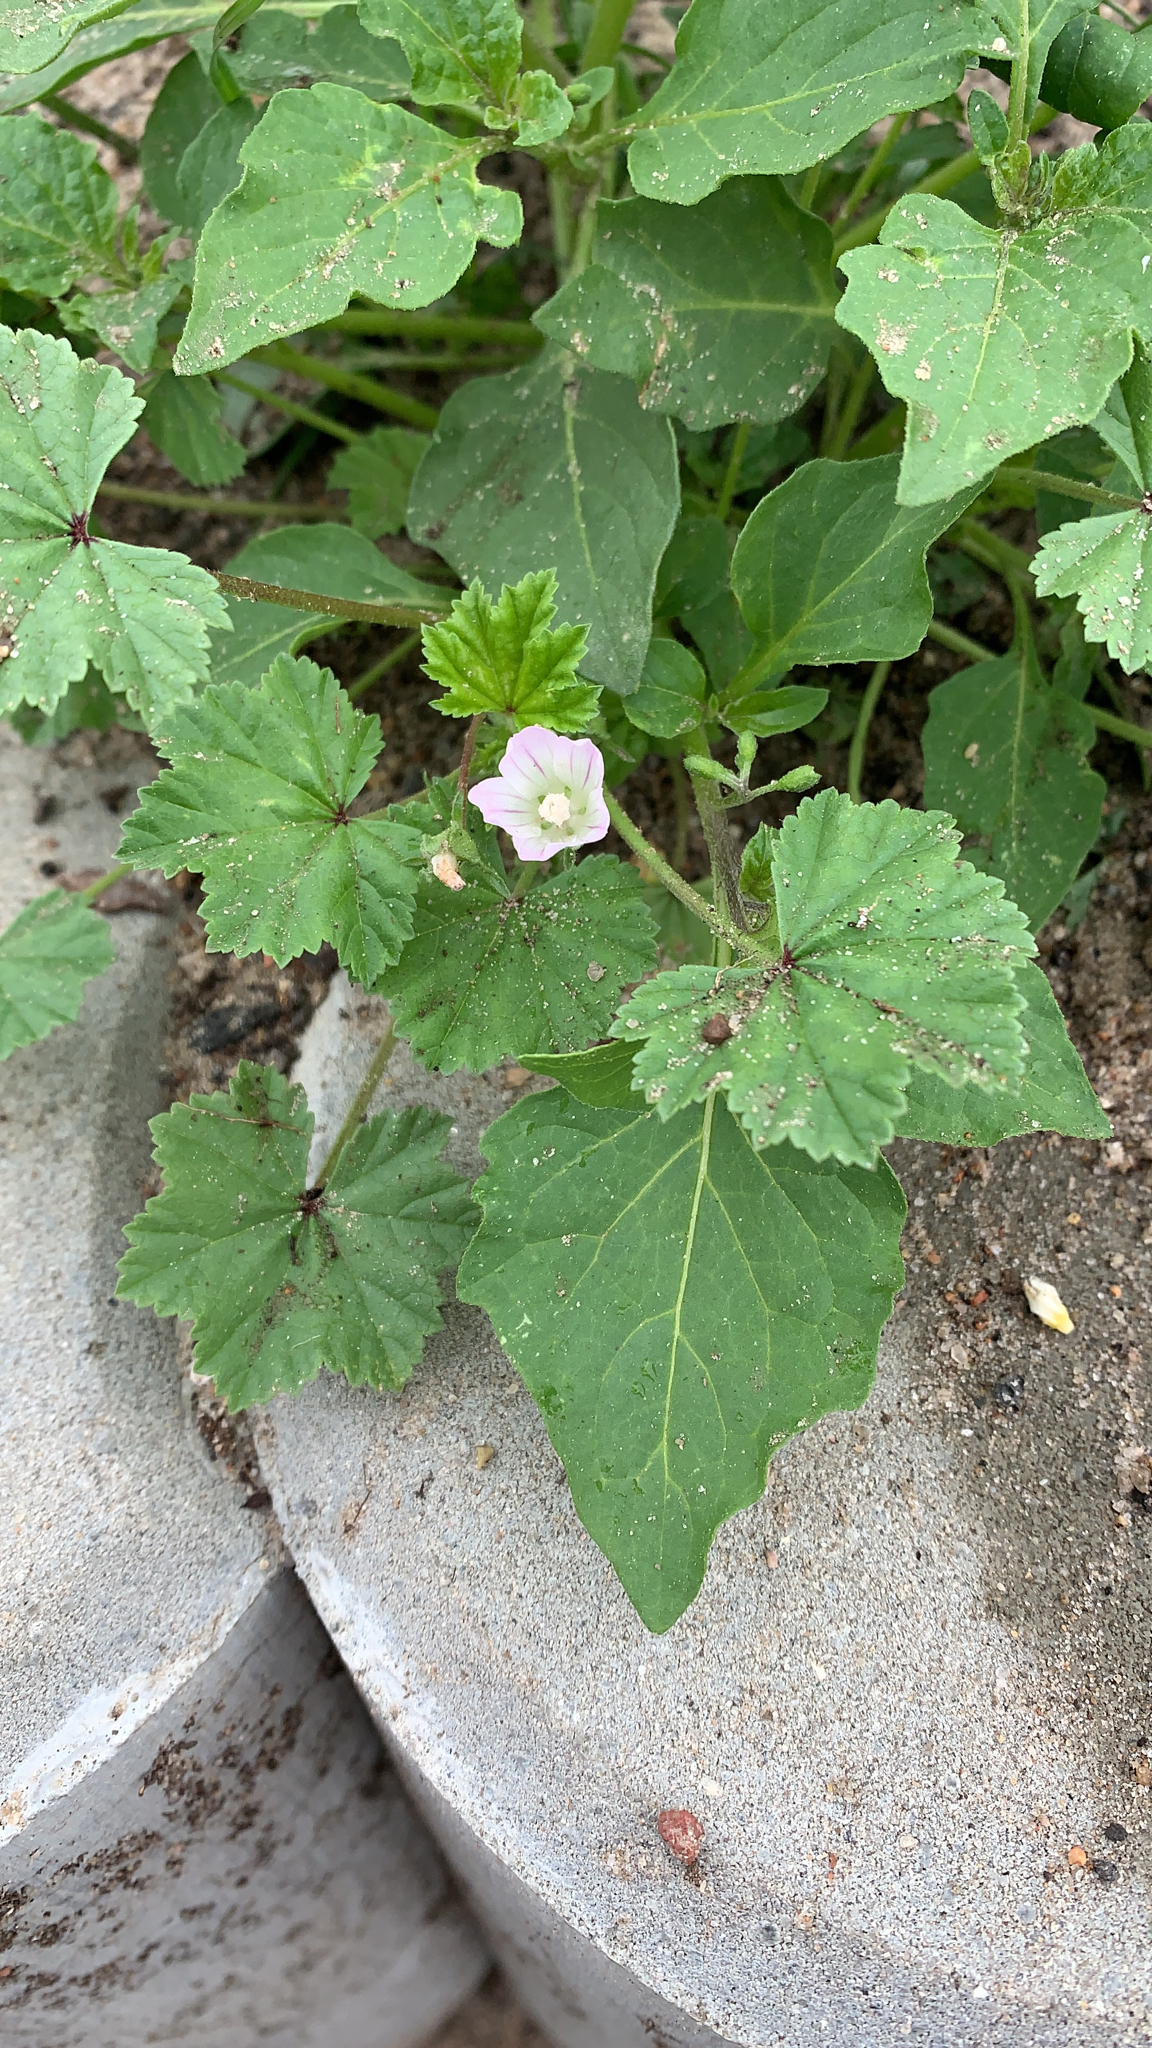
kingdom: Plantae
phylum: Tracheophyta
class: Magnoliopsida
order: Malvales
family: Malvaceae
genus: Malva
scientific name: Malva neglecta
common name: Common mallow
